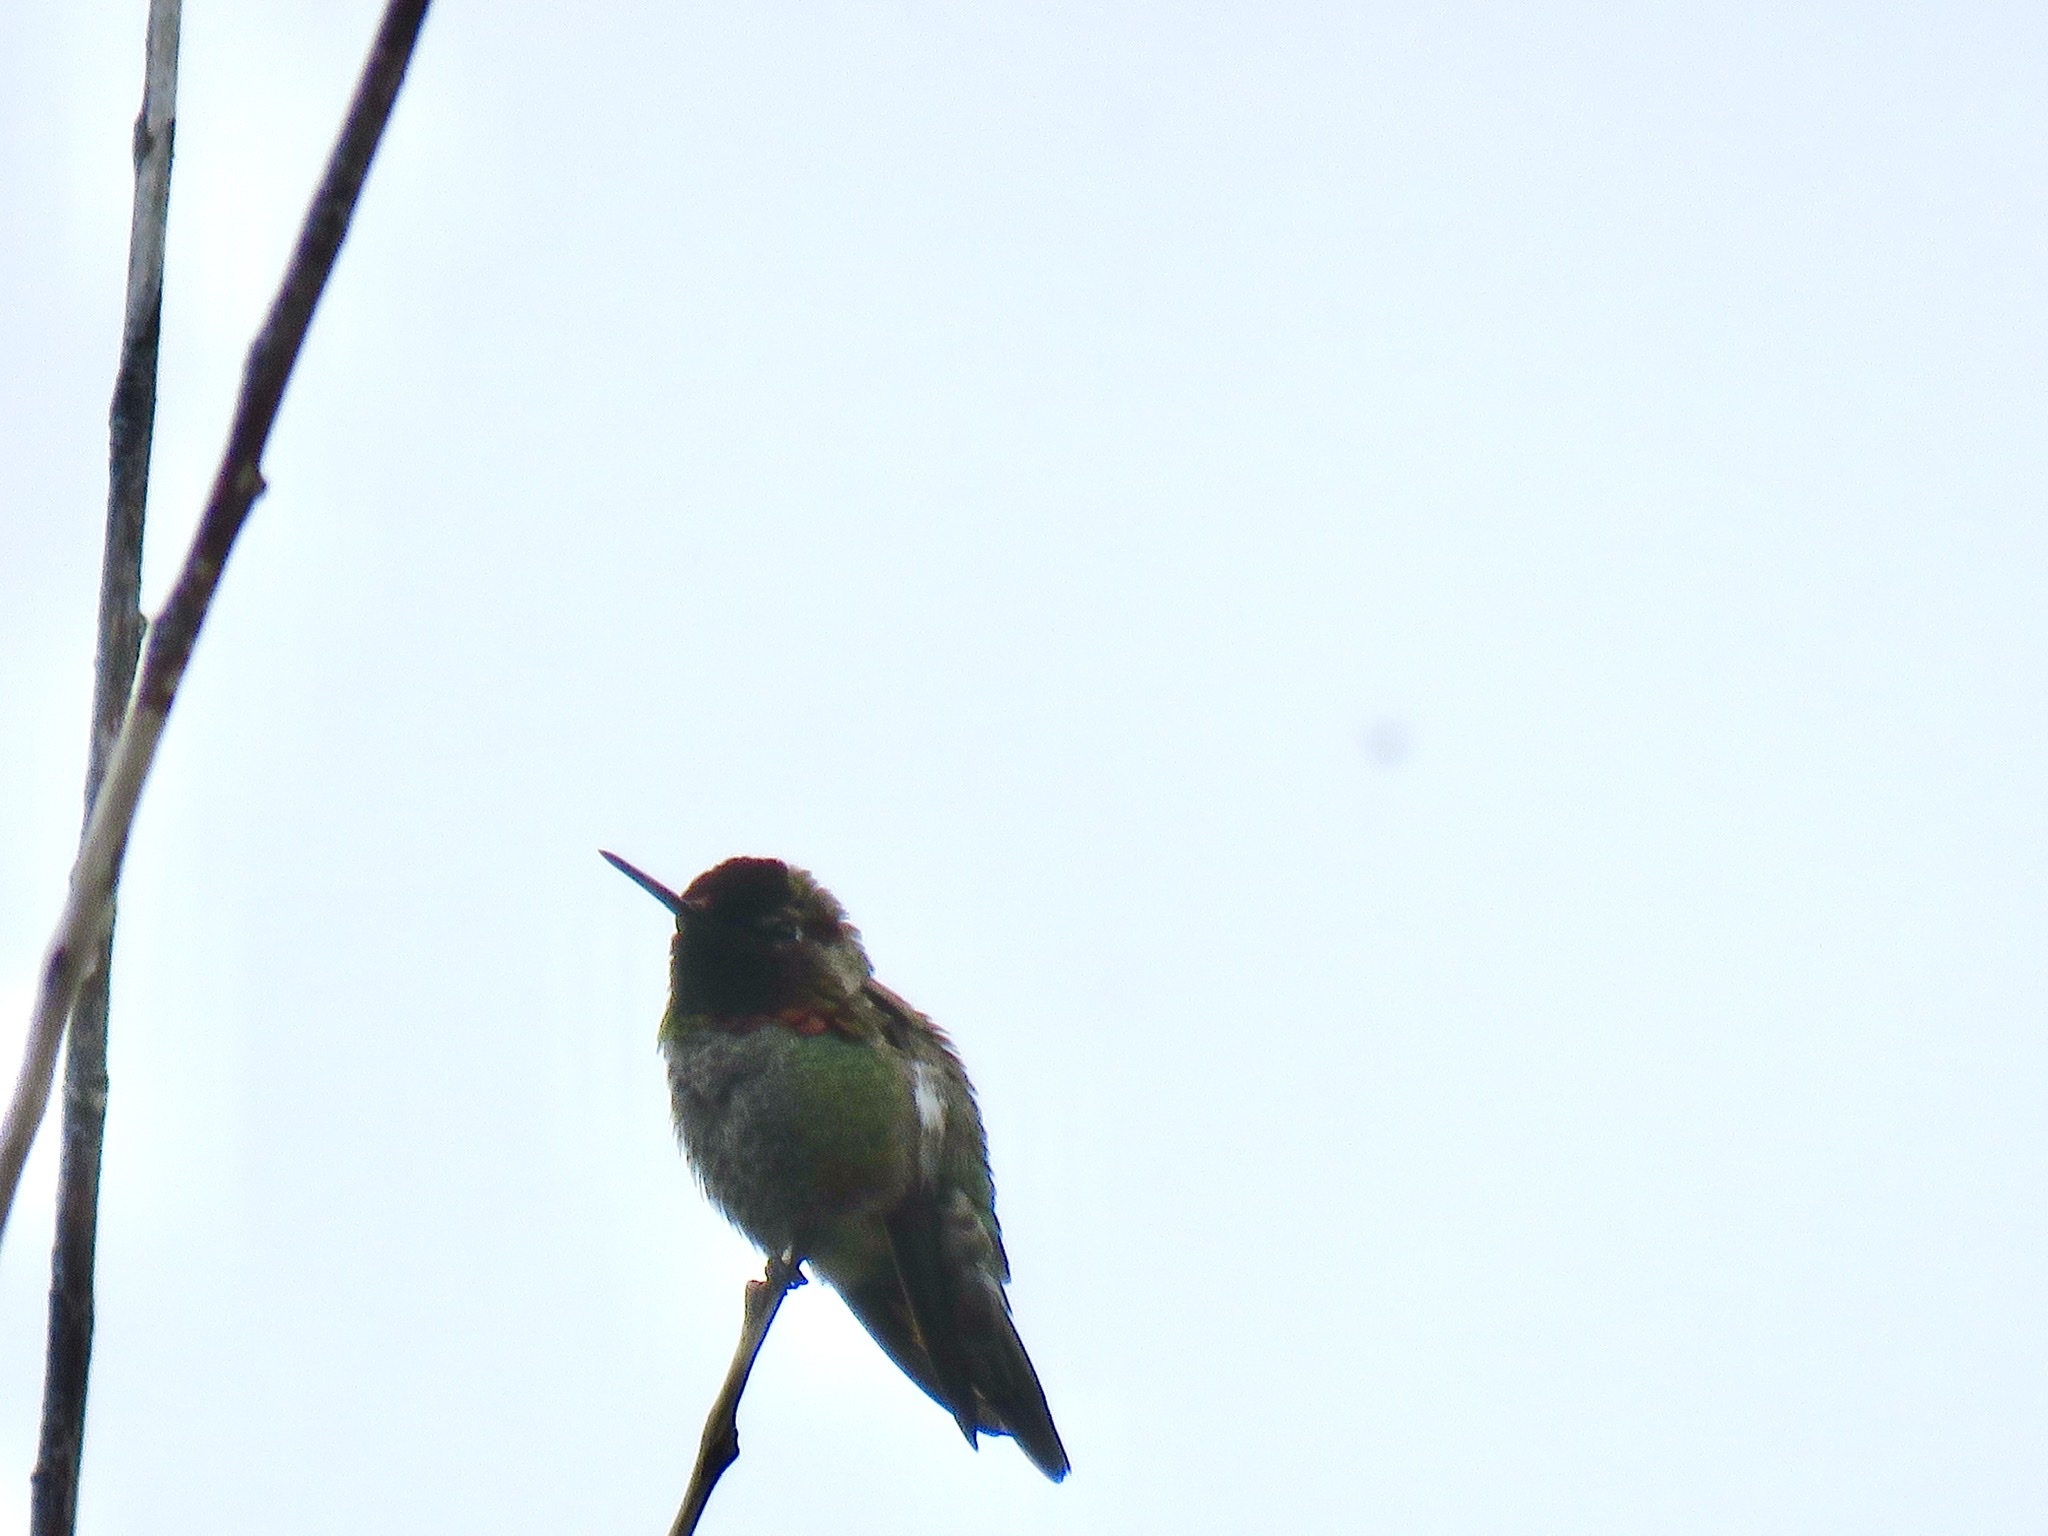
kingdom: Animalia
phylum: Chordata
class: Aves
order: Apodiformes
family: Trochilidae
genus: Calypte
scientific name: Calypte anna
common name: Anna's hummingbird
